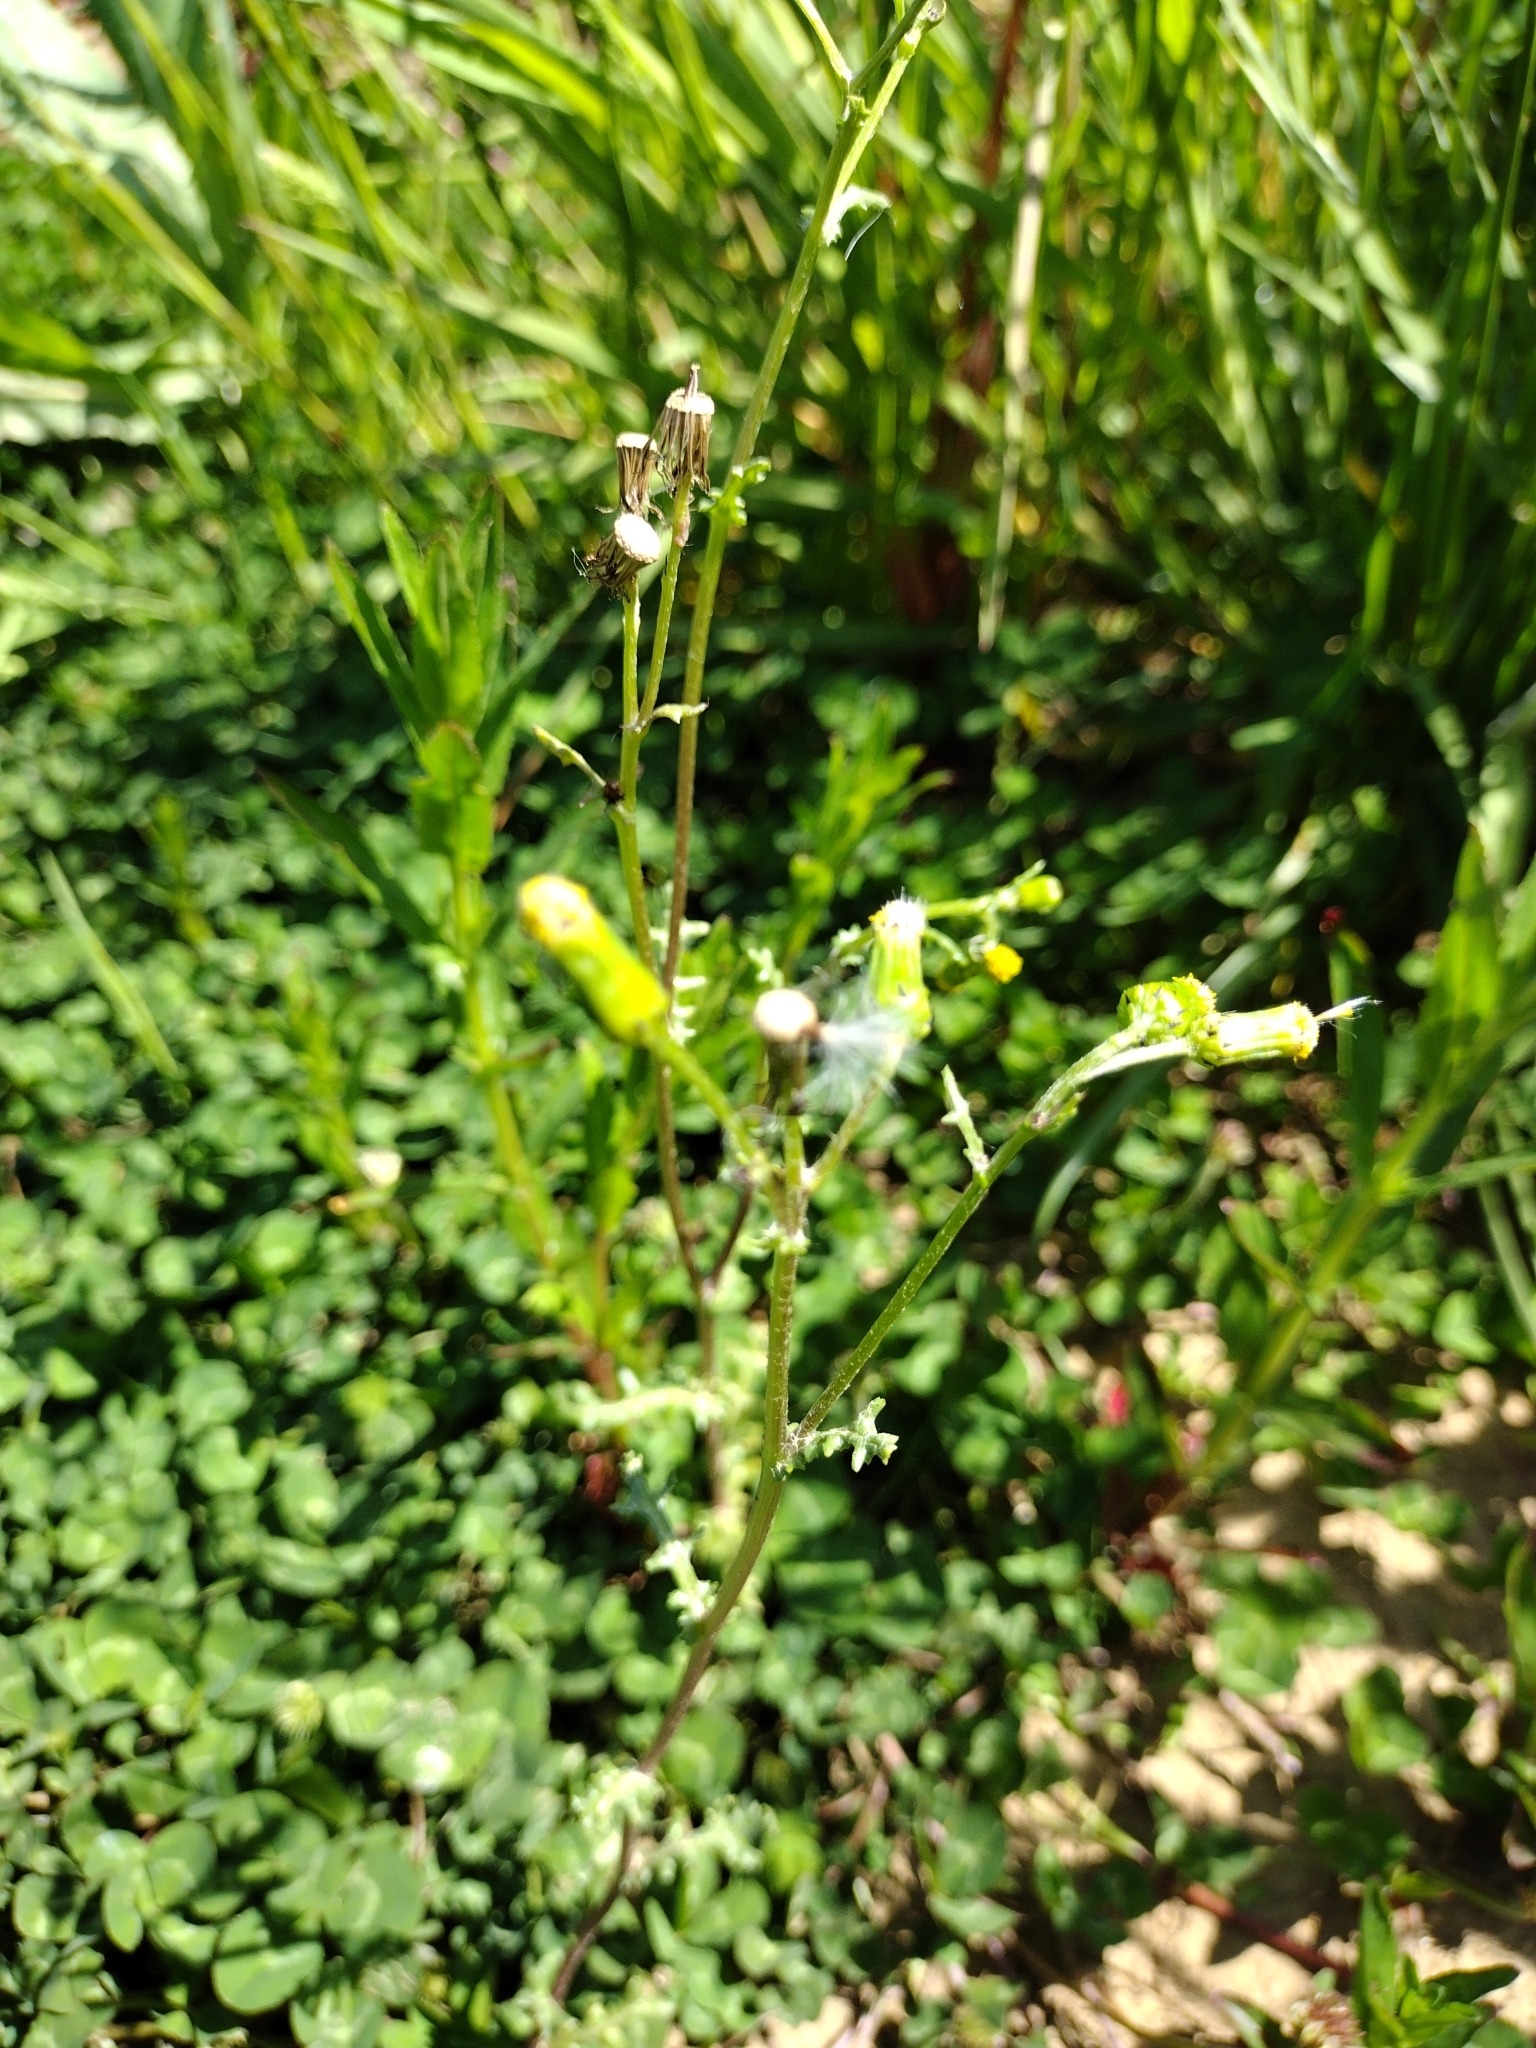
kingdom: Plantae
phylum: Tracheophyta
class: Magnoliopsida
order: Asterales
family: Asteraceae
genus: Senecio
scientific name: Senecio vulgaris
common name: Old-man-in-the-spring
